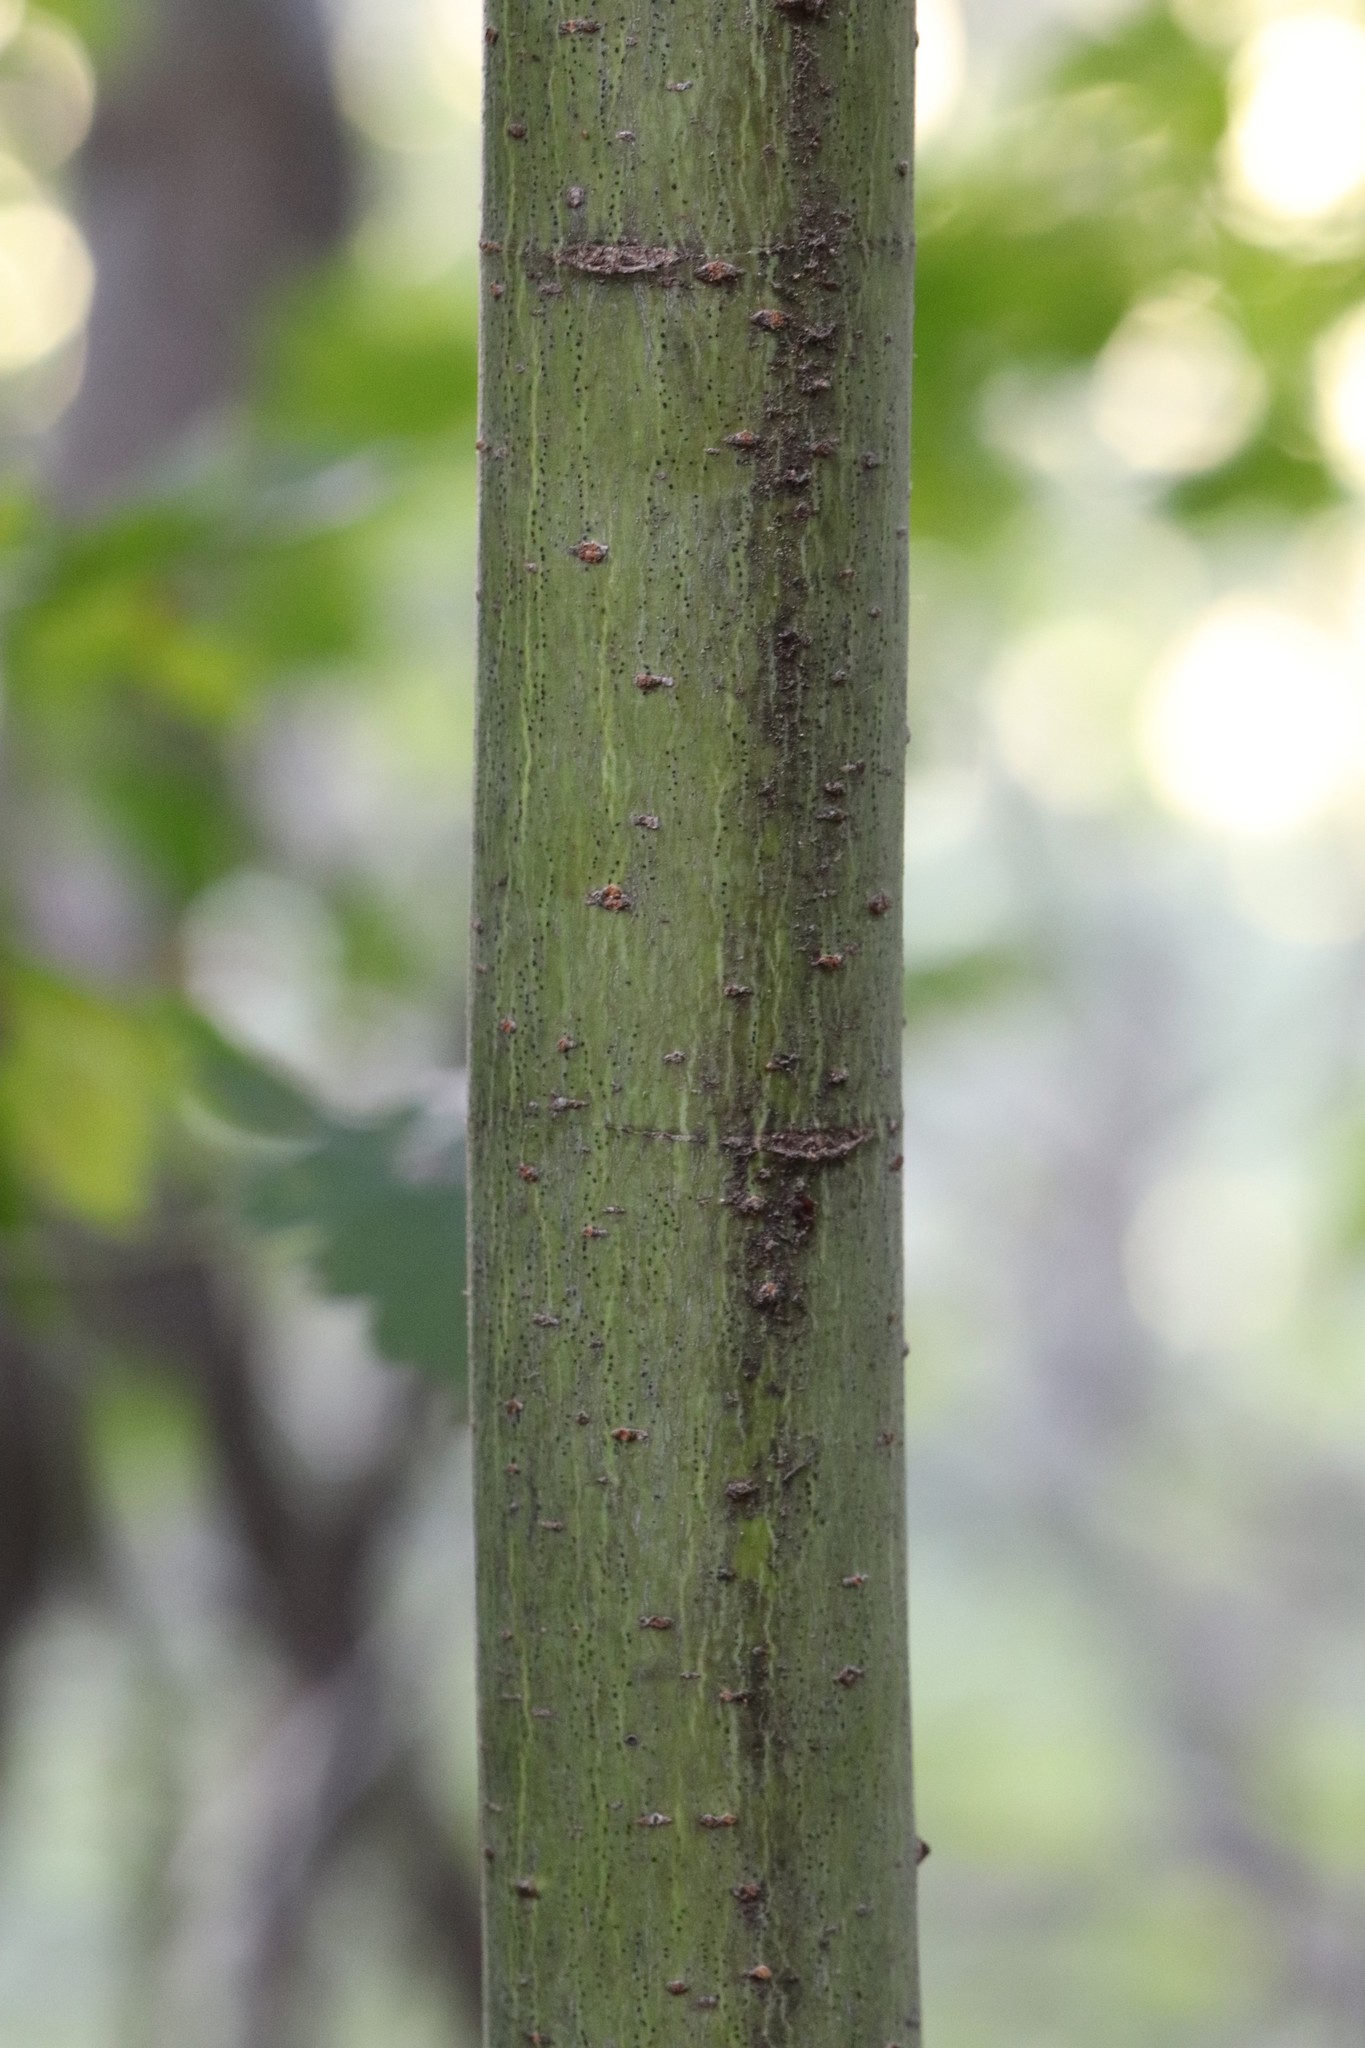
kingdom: Plantae
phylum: Tracheophyta
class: Magnoliopsida
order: Sapindales
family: Sapindaceae
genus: Acer
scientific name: Acer barbinerve
